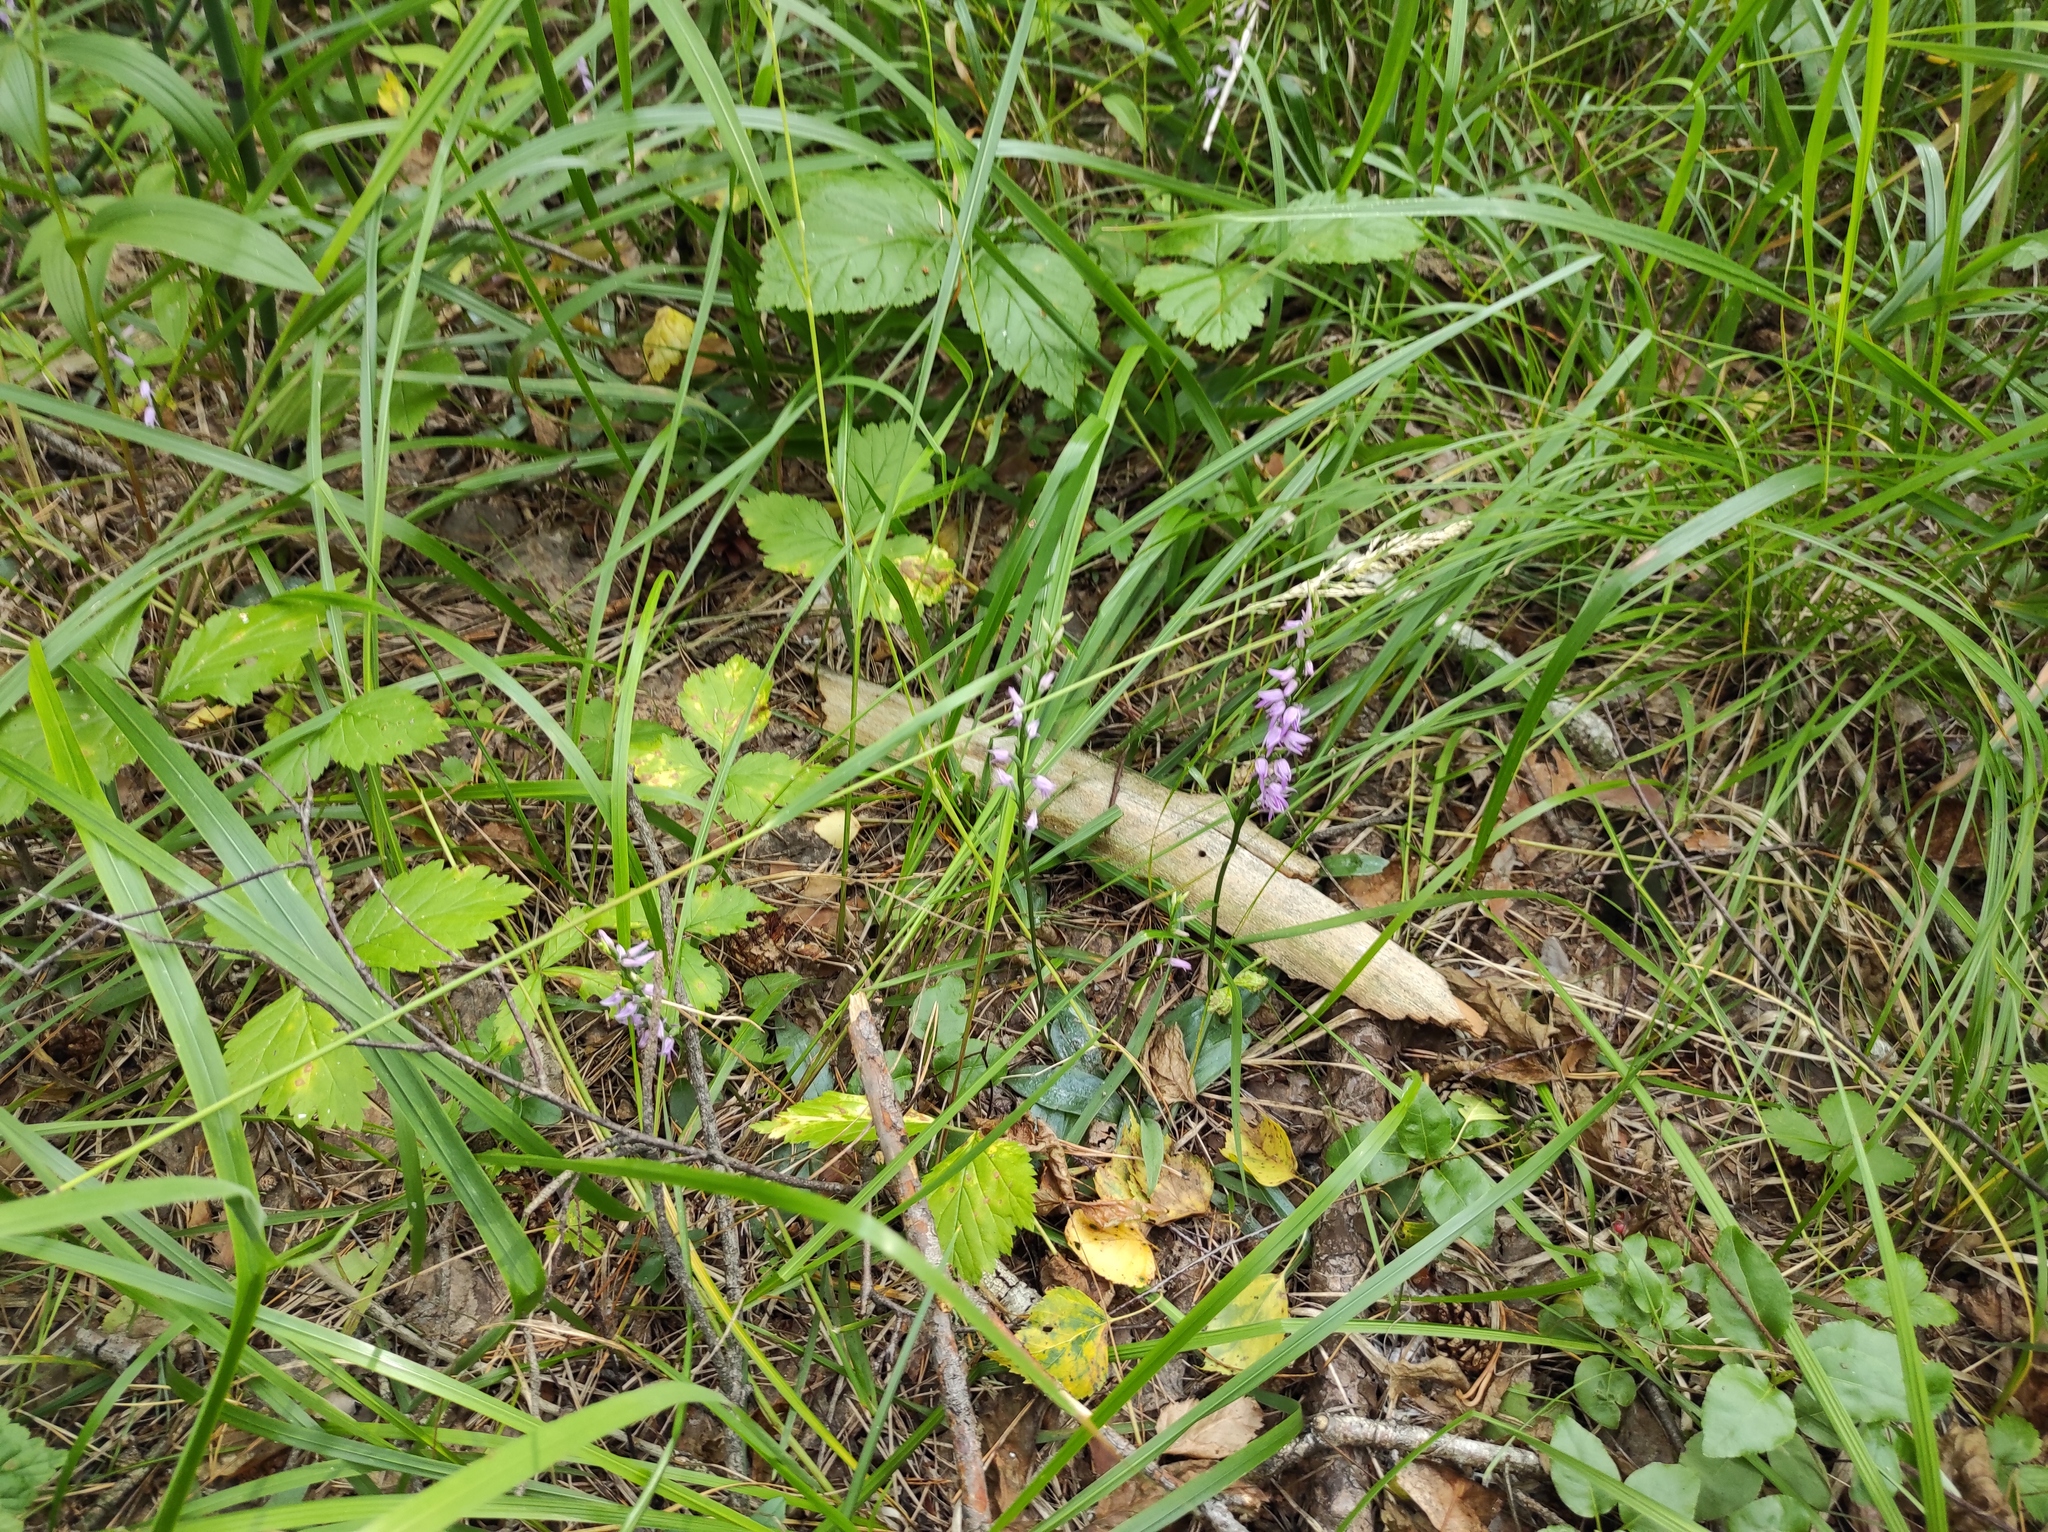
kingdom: Plantae
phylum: Tracheophyta
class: Liliopsida
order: Asparagales
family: Orchidaceae
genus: Hemipilia
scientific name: Hemipilia cucullata
